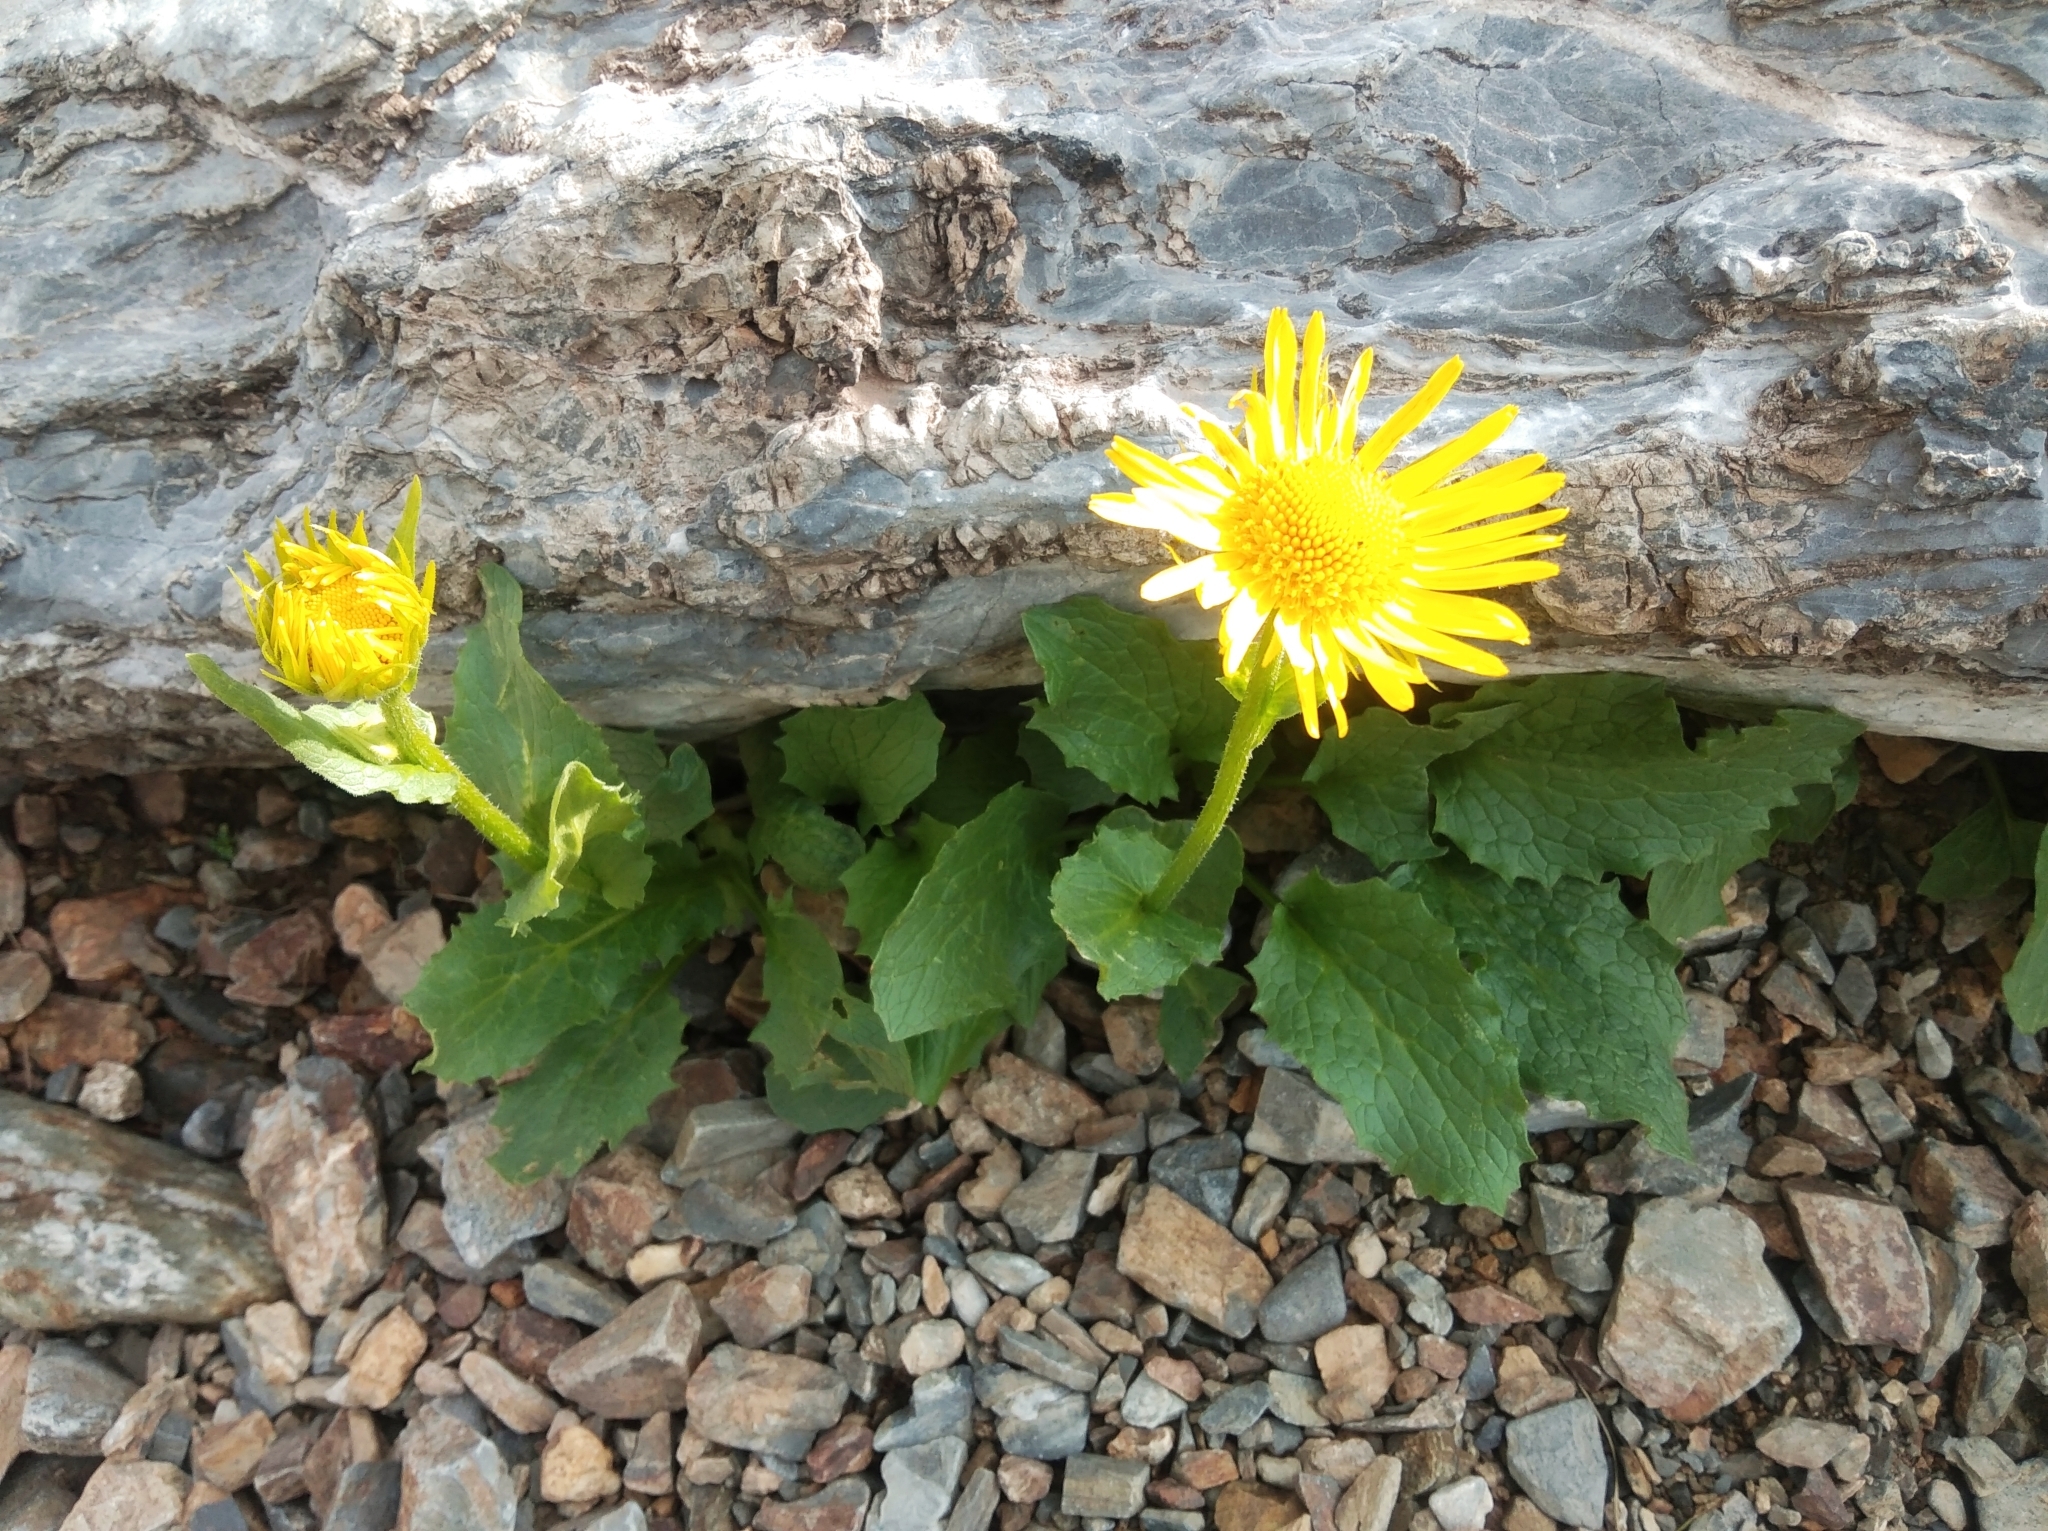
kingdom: Plantae
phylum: Tracheophyta
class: Magnoliopsida
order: Asterales
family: Asteraceae
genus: Doronicum
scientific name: Doronicum grandiflorum
